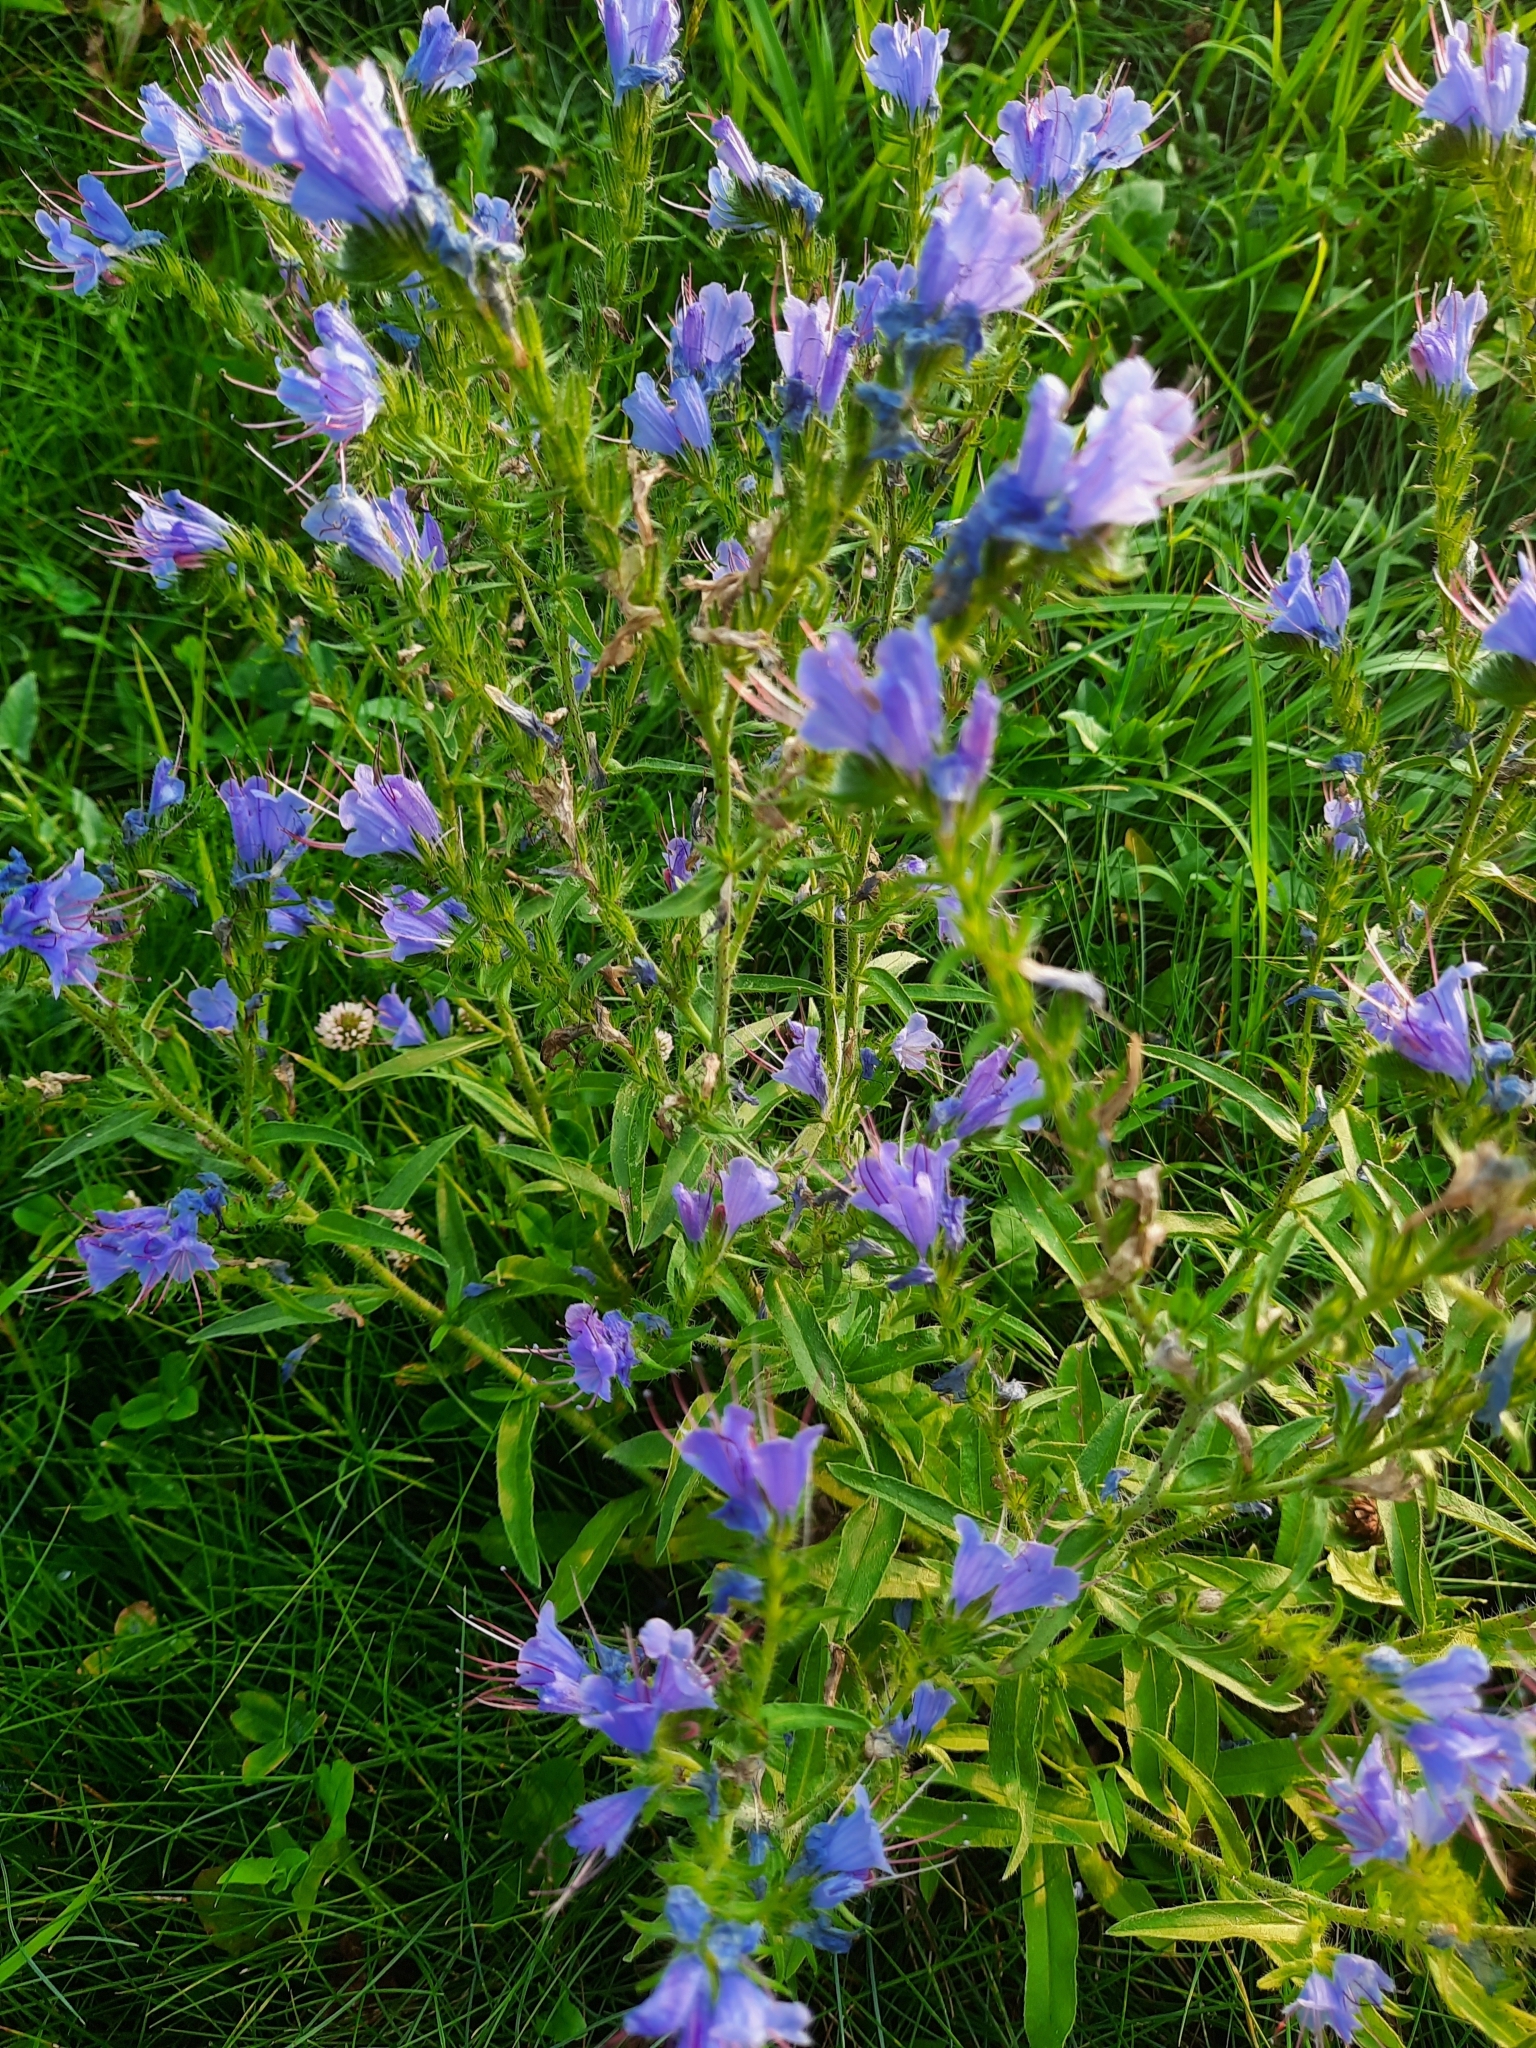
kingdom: Plantae
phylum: Tracheophyta
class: Magnoliopsida
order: Boraginales
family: Boraginaceae
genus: Echium
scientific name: Echium vulgare
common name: Common viper's bugloss
